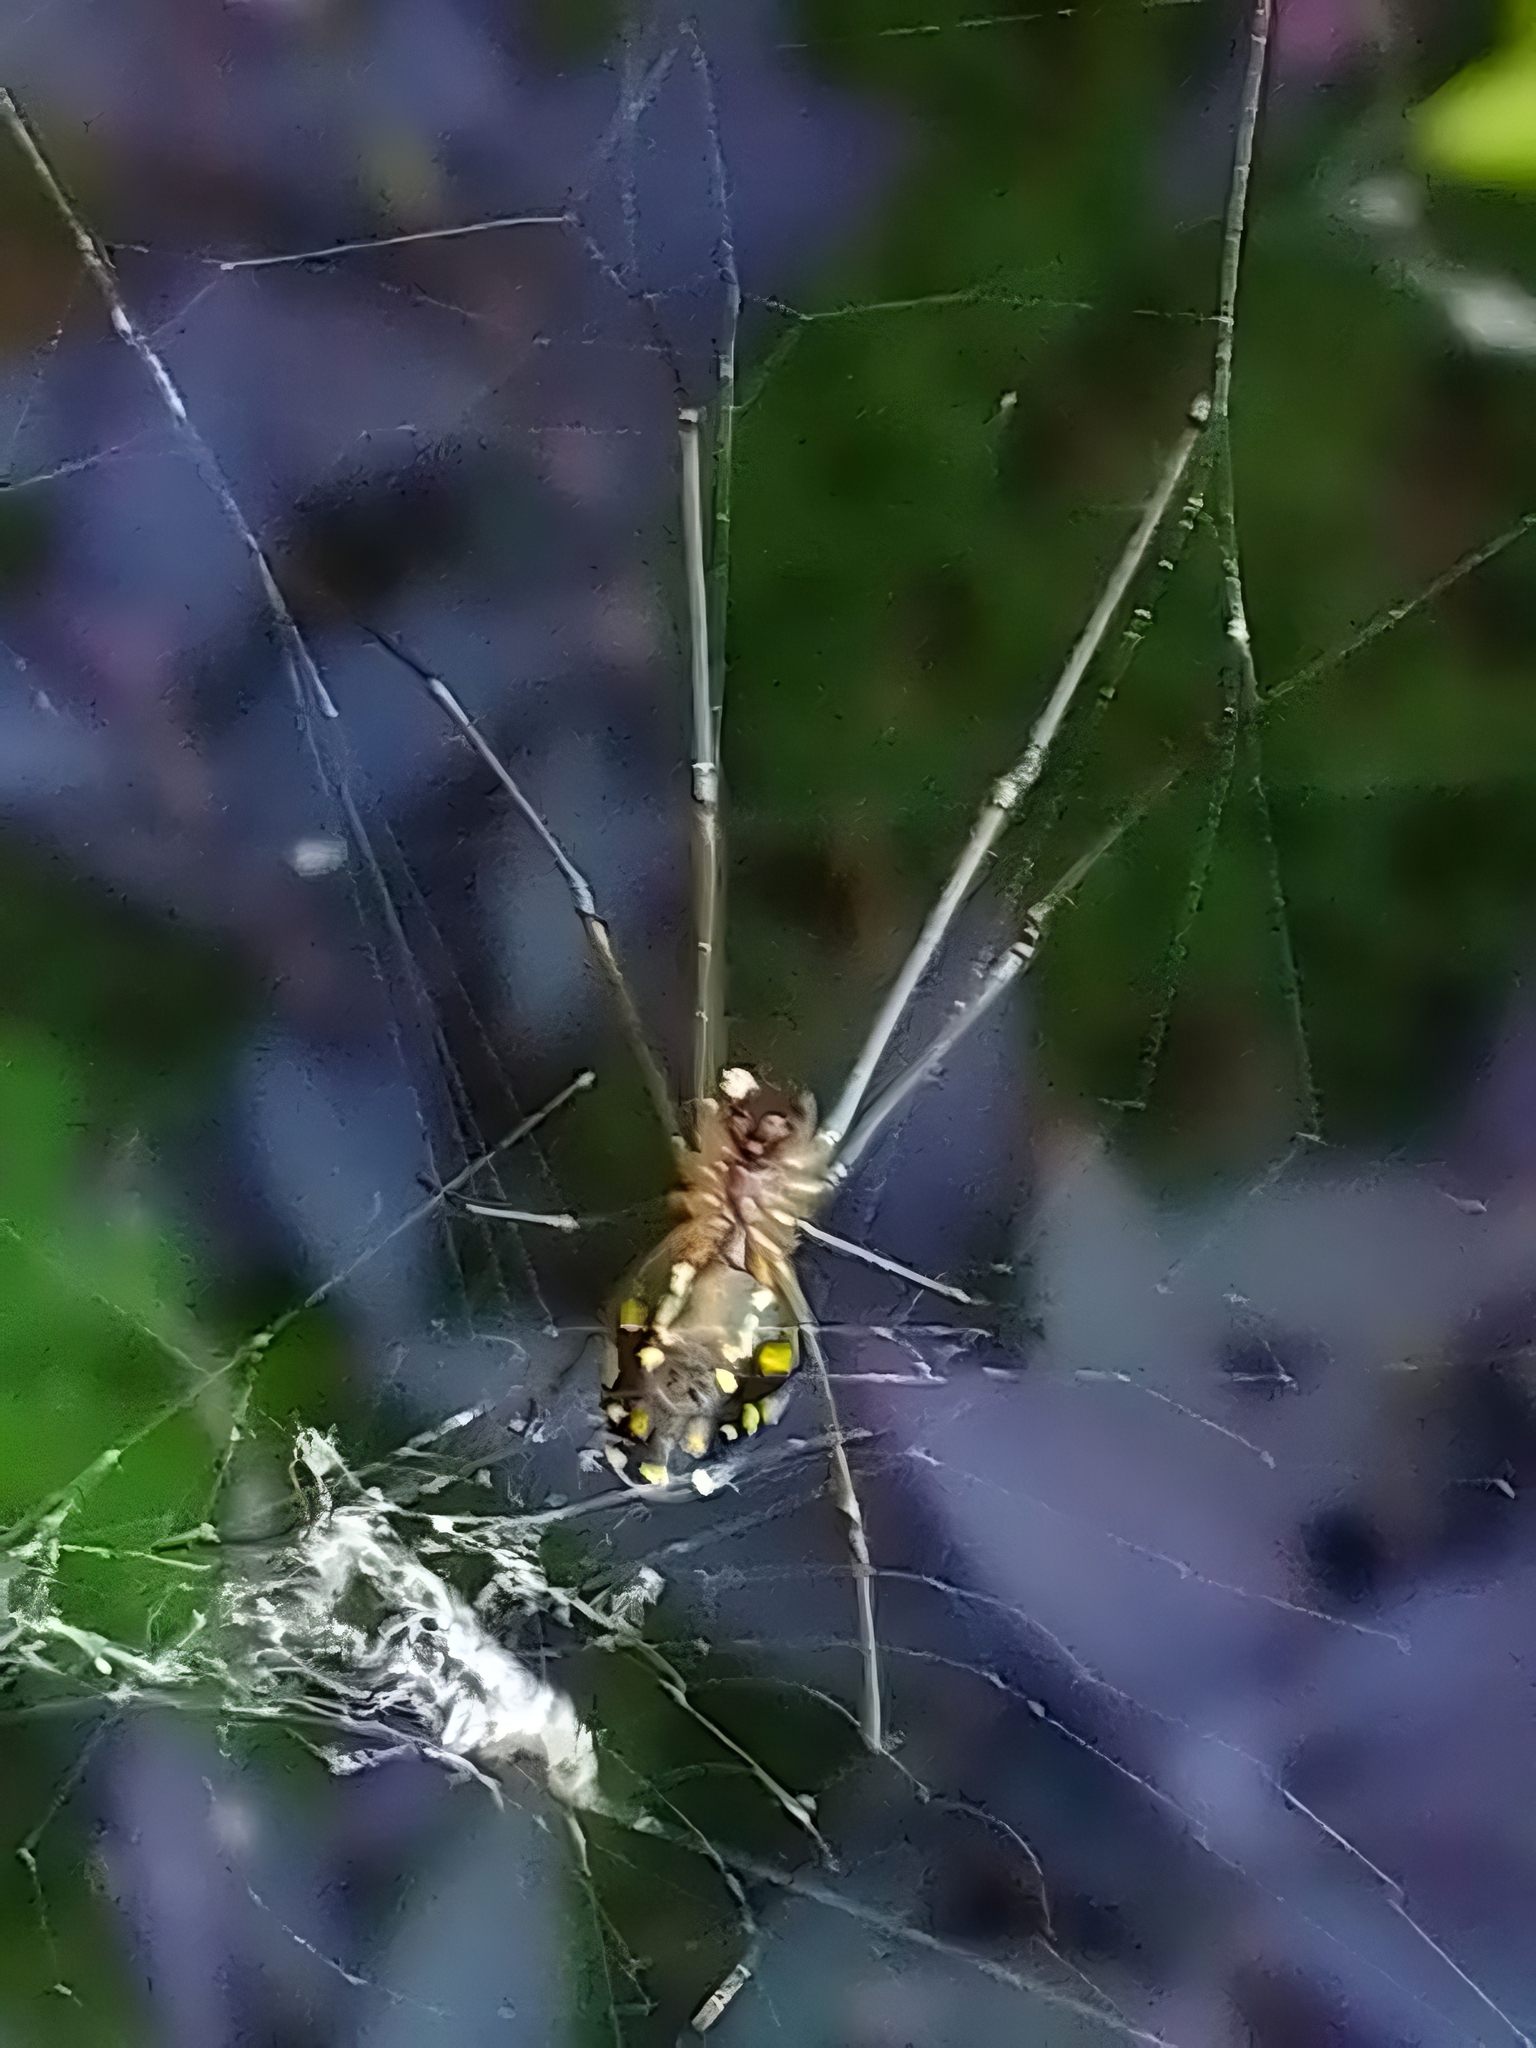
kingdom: Animalia
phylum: Arthropoda
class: Arachnida
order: Araneae
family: Tetragnathidae
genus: Leucauge
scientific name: Leucauge argyra
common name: Longjawed orb weavers
